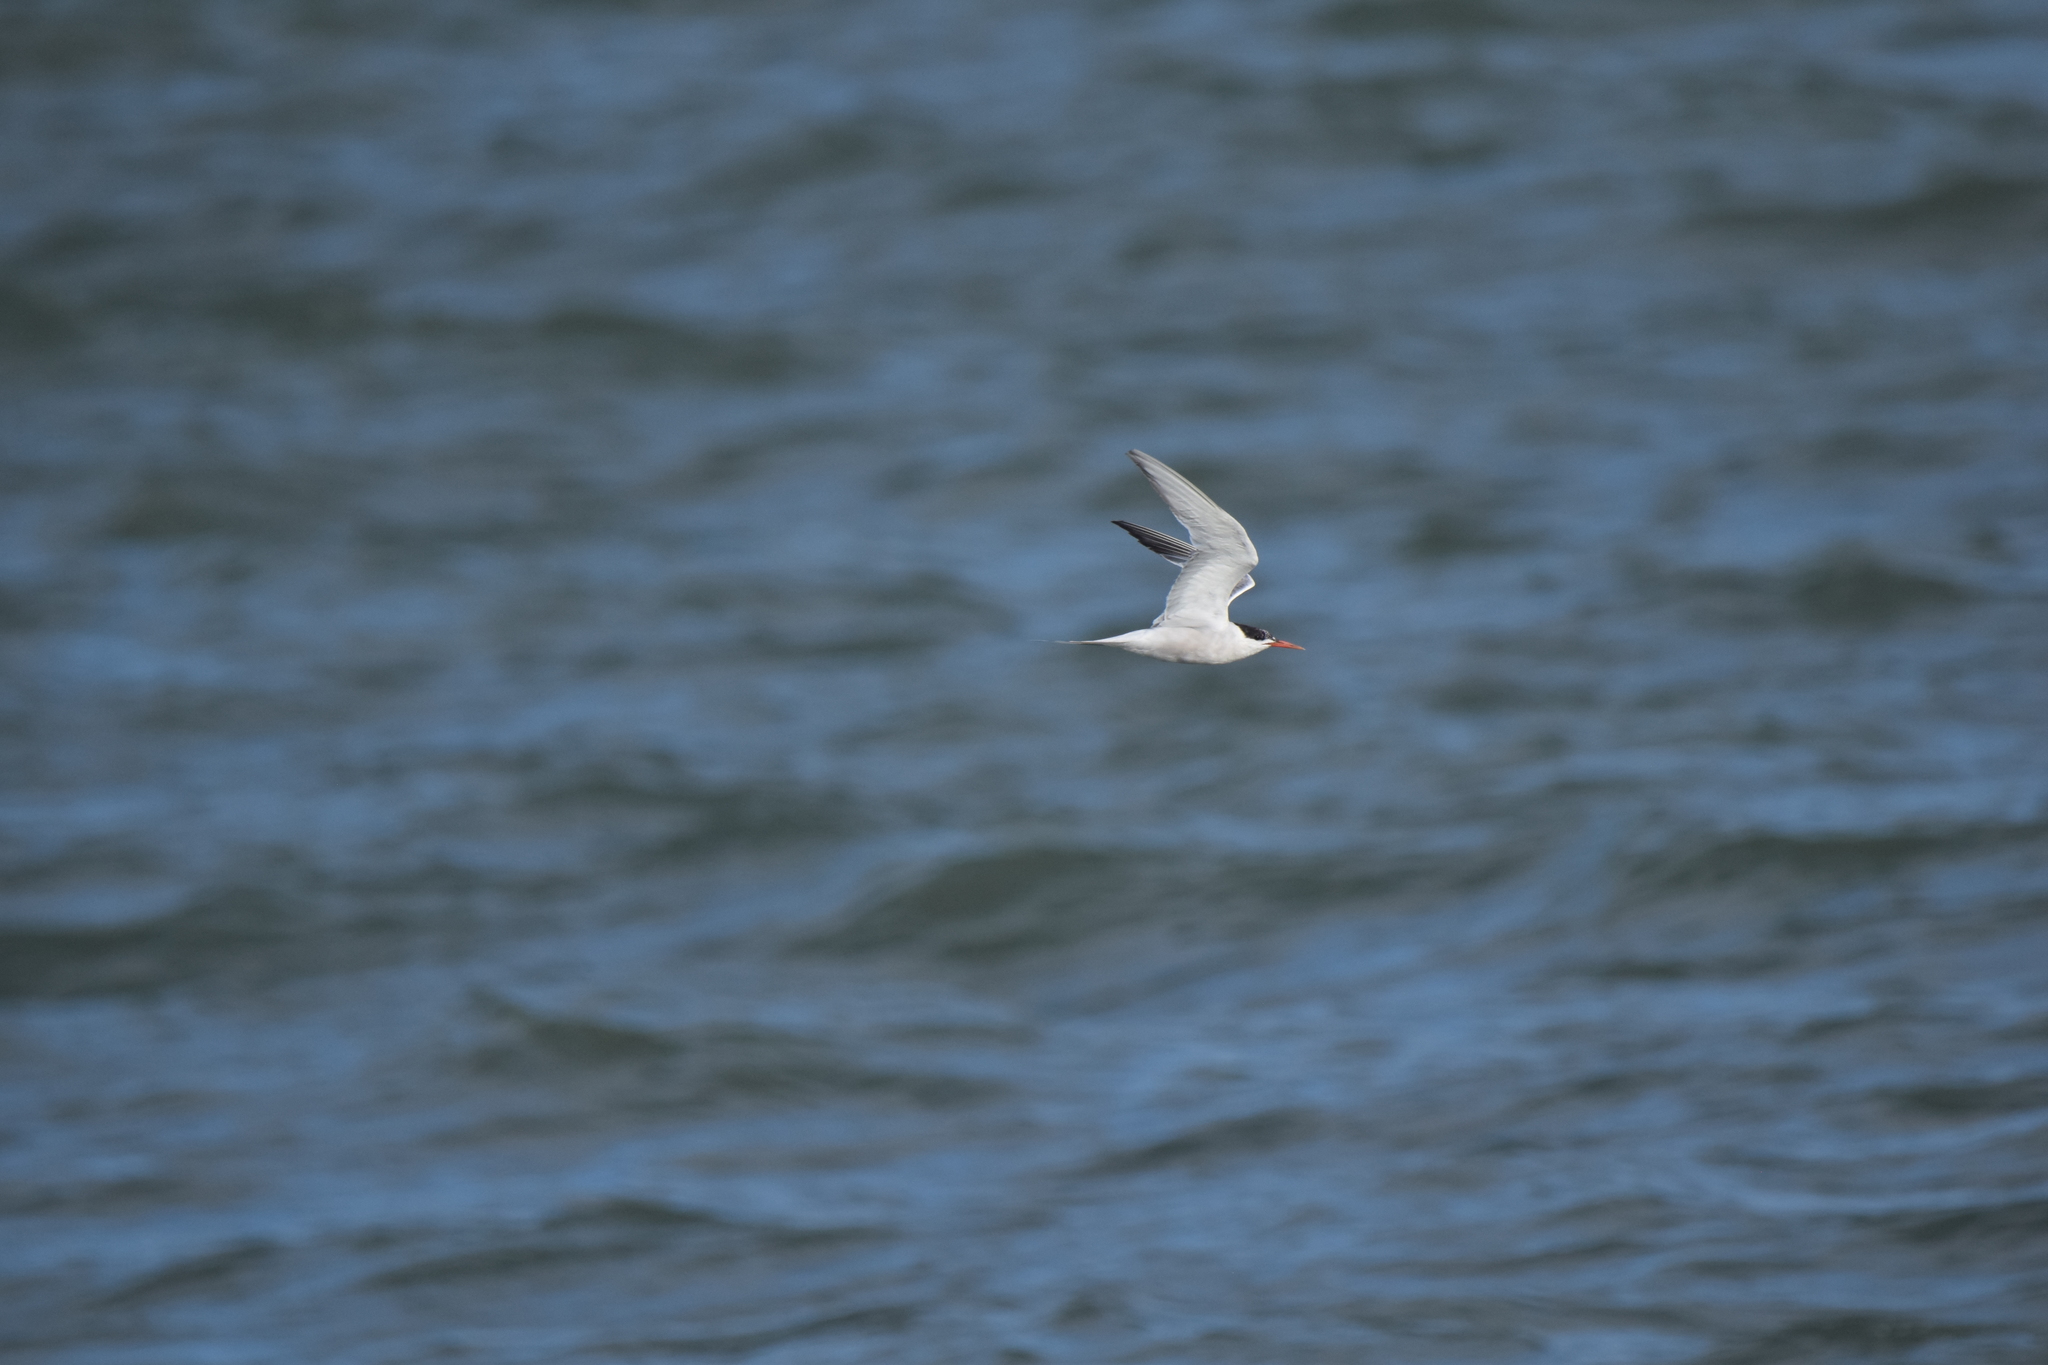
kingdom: Animalia
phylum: Chordata
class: Aves
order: Charadriiformes
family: Laridae
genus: Sterna
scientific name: Sterna hirundo
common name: Common tern
